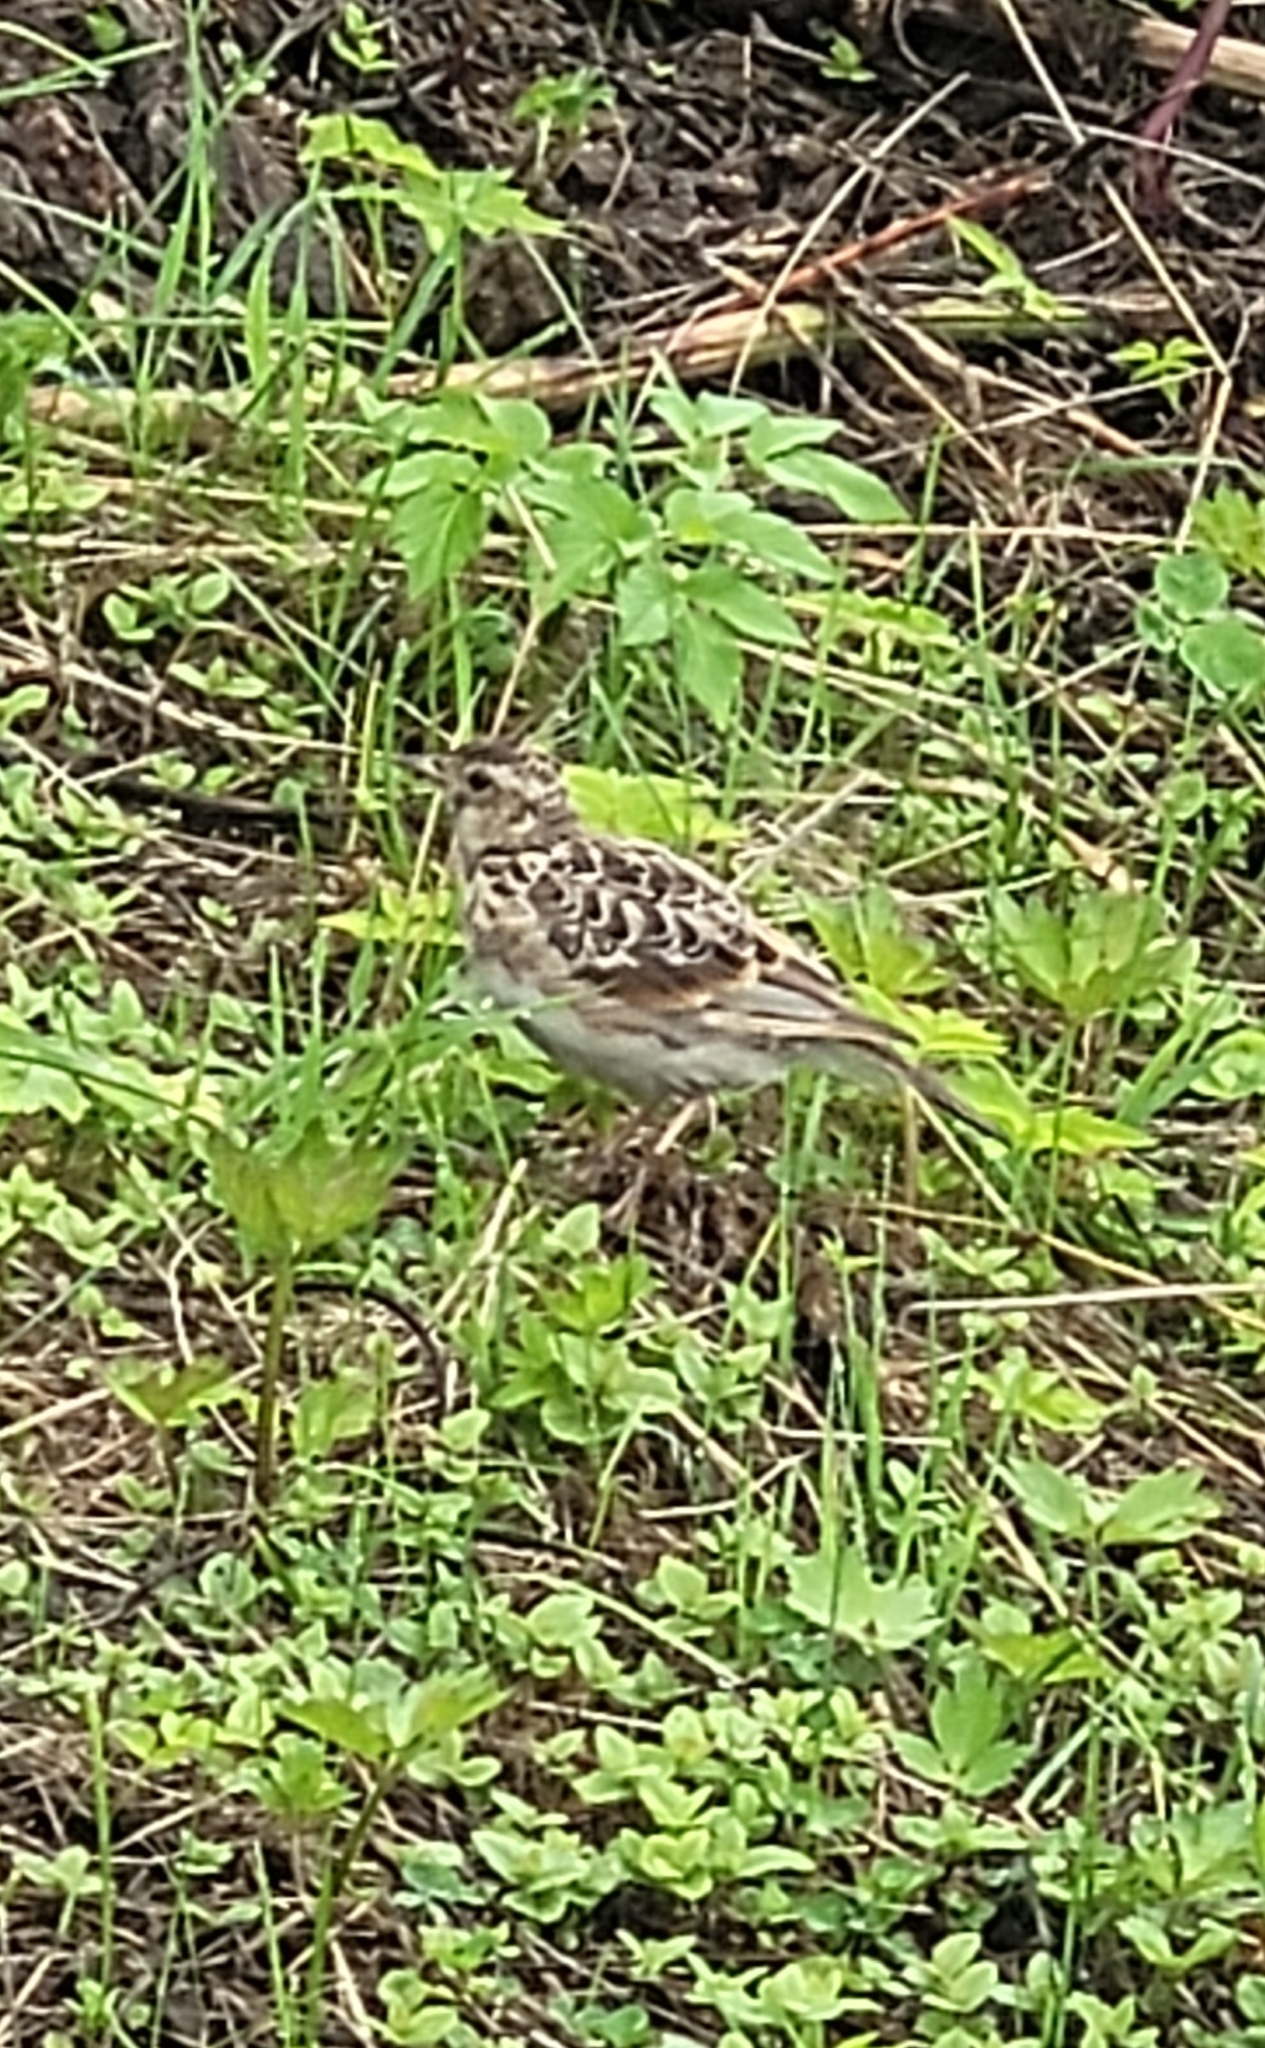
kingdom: Animalia
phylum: Chordata
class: Aves
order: Passeriformes
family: Alaudidae
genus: Alauda
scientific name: Alauda arvensis
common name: Eurasian skylark
